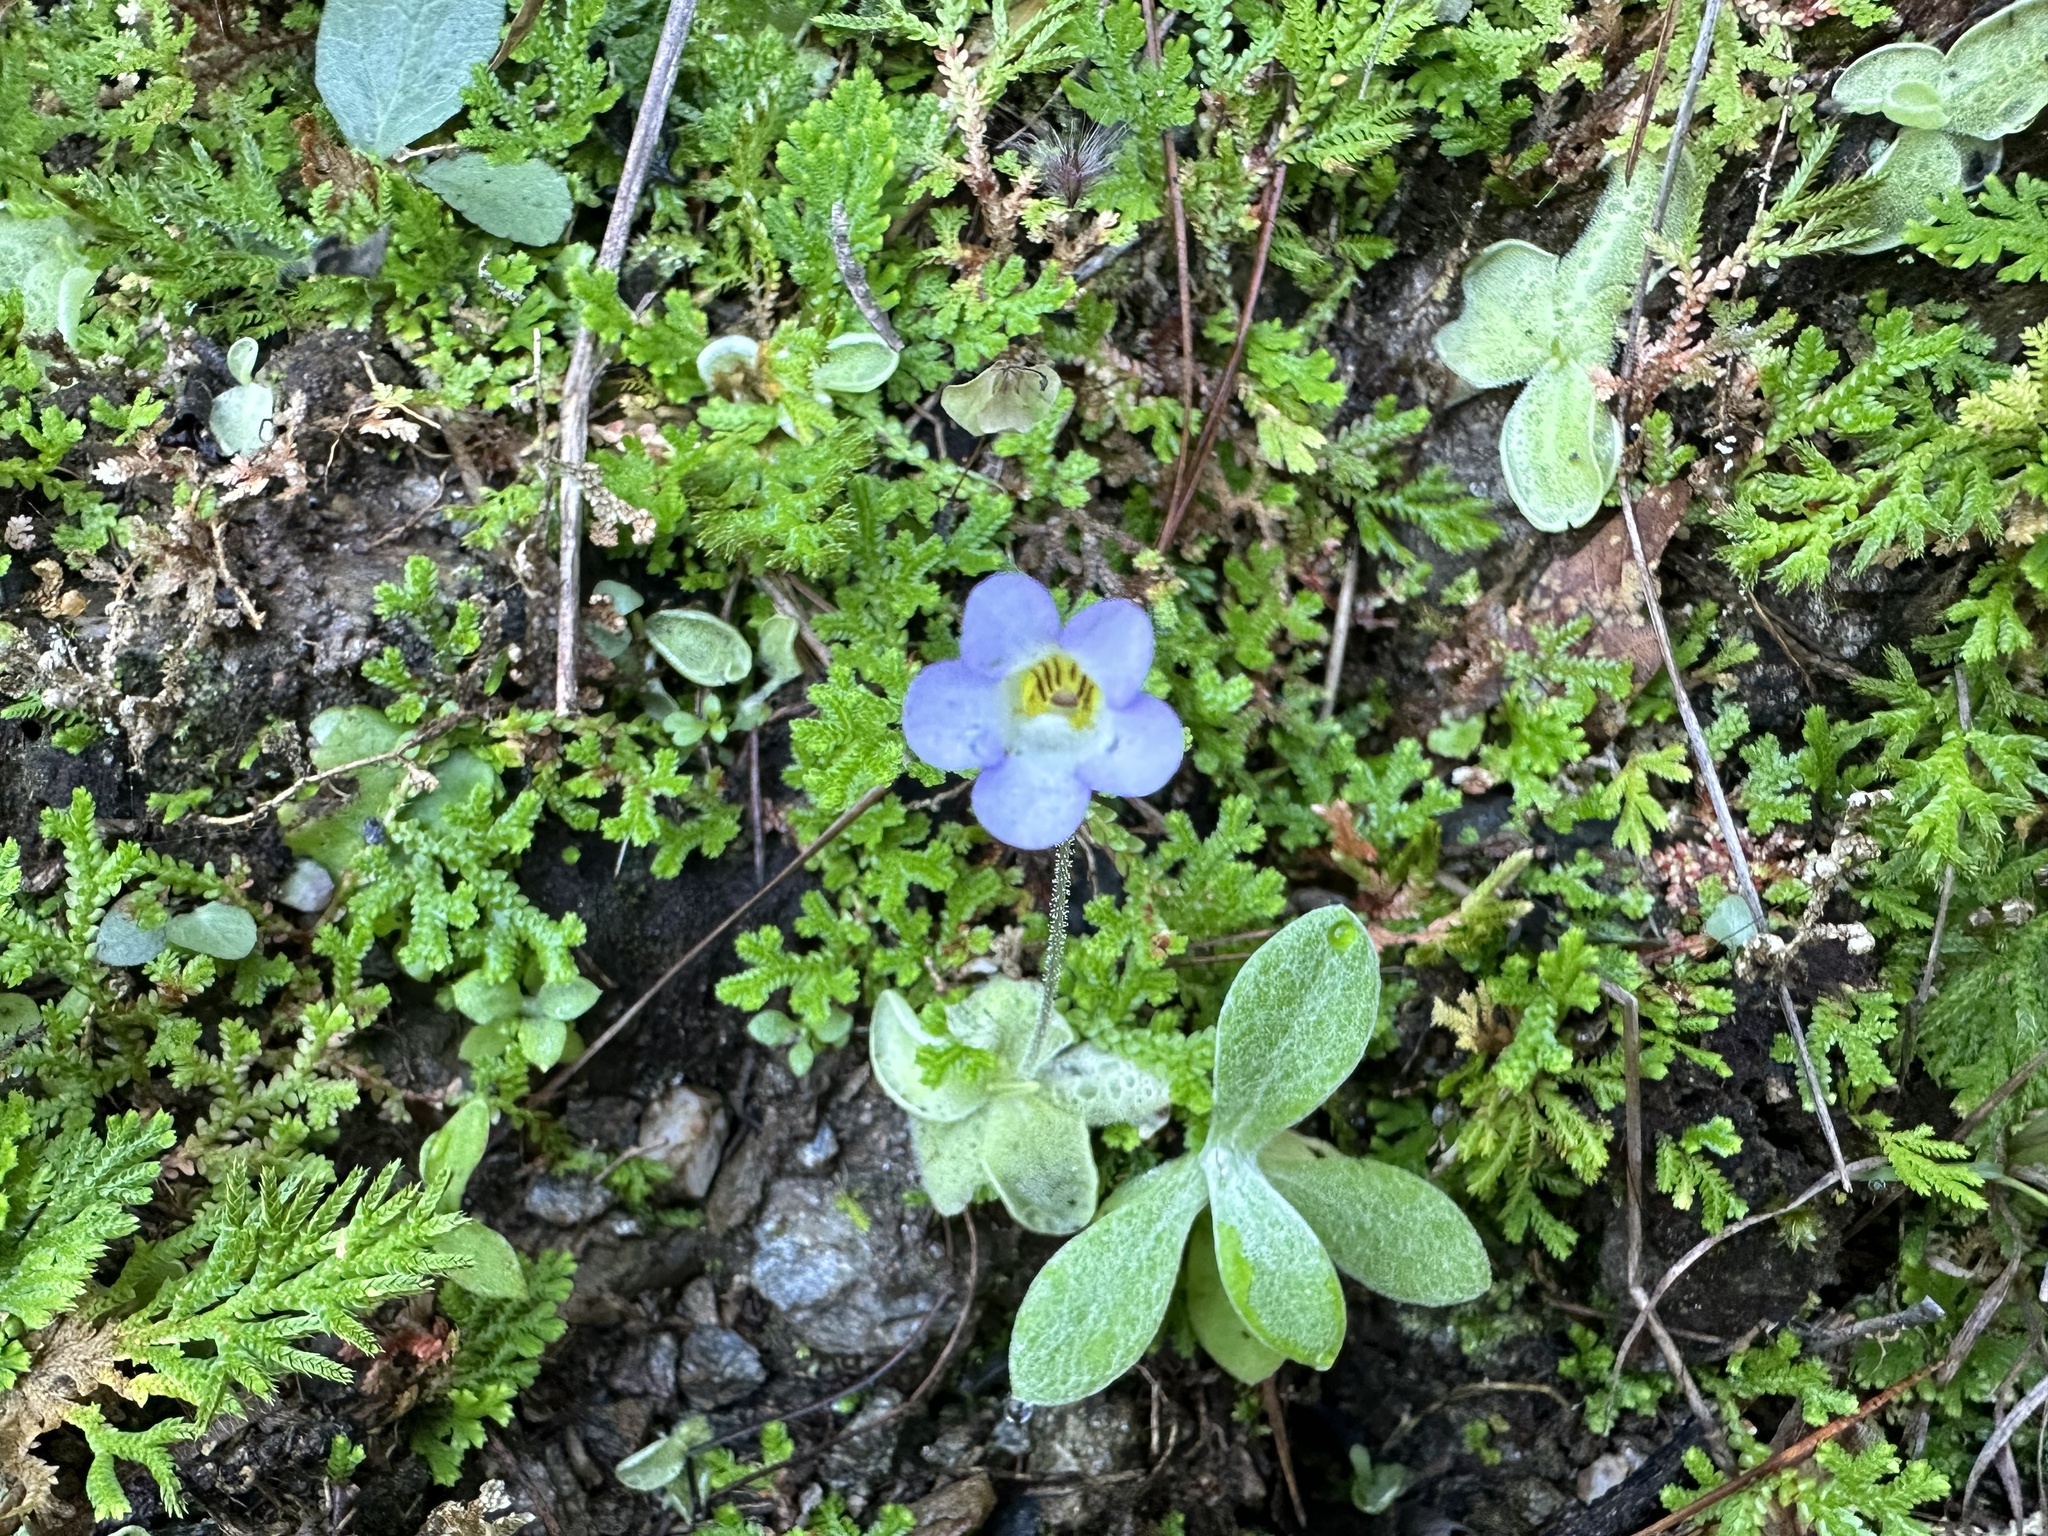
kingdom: Plantae
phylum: Tracheophyta
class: Magnoliopsida
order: Lamiales
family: Lentibulariaceae
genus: Pinguicula
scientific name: Pinguicula lilacina
